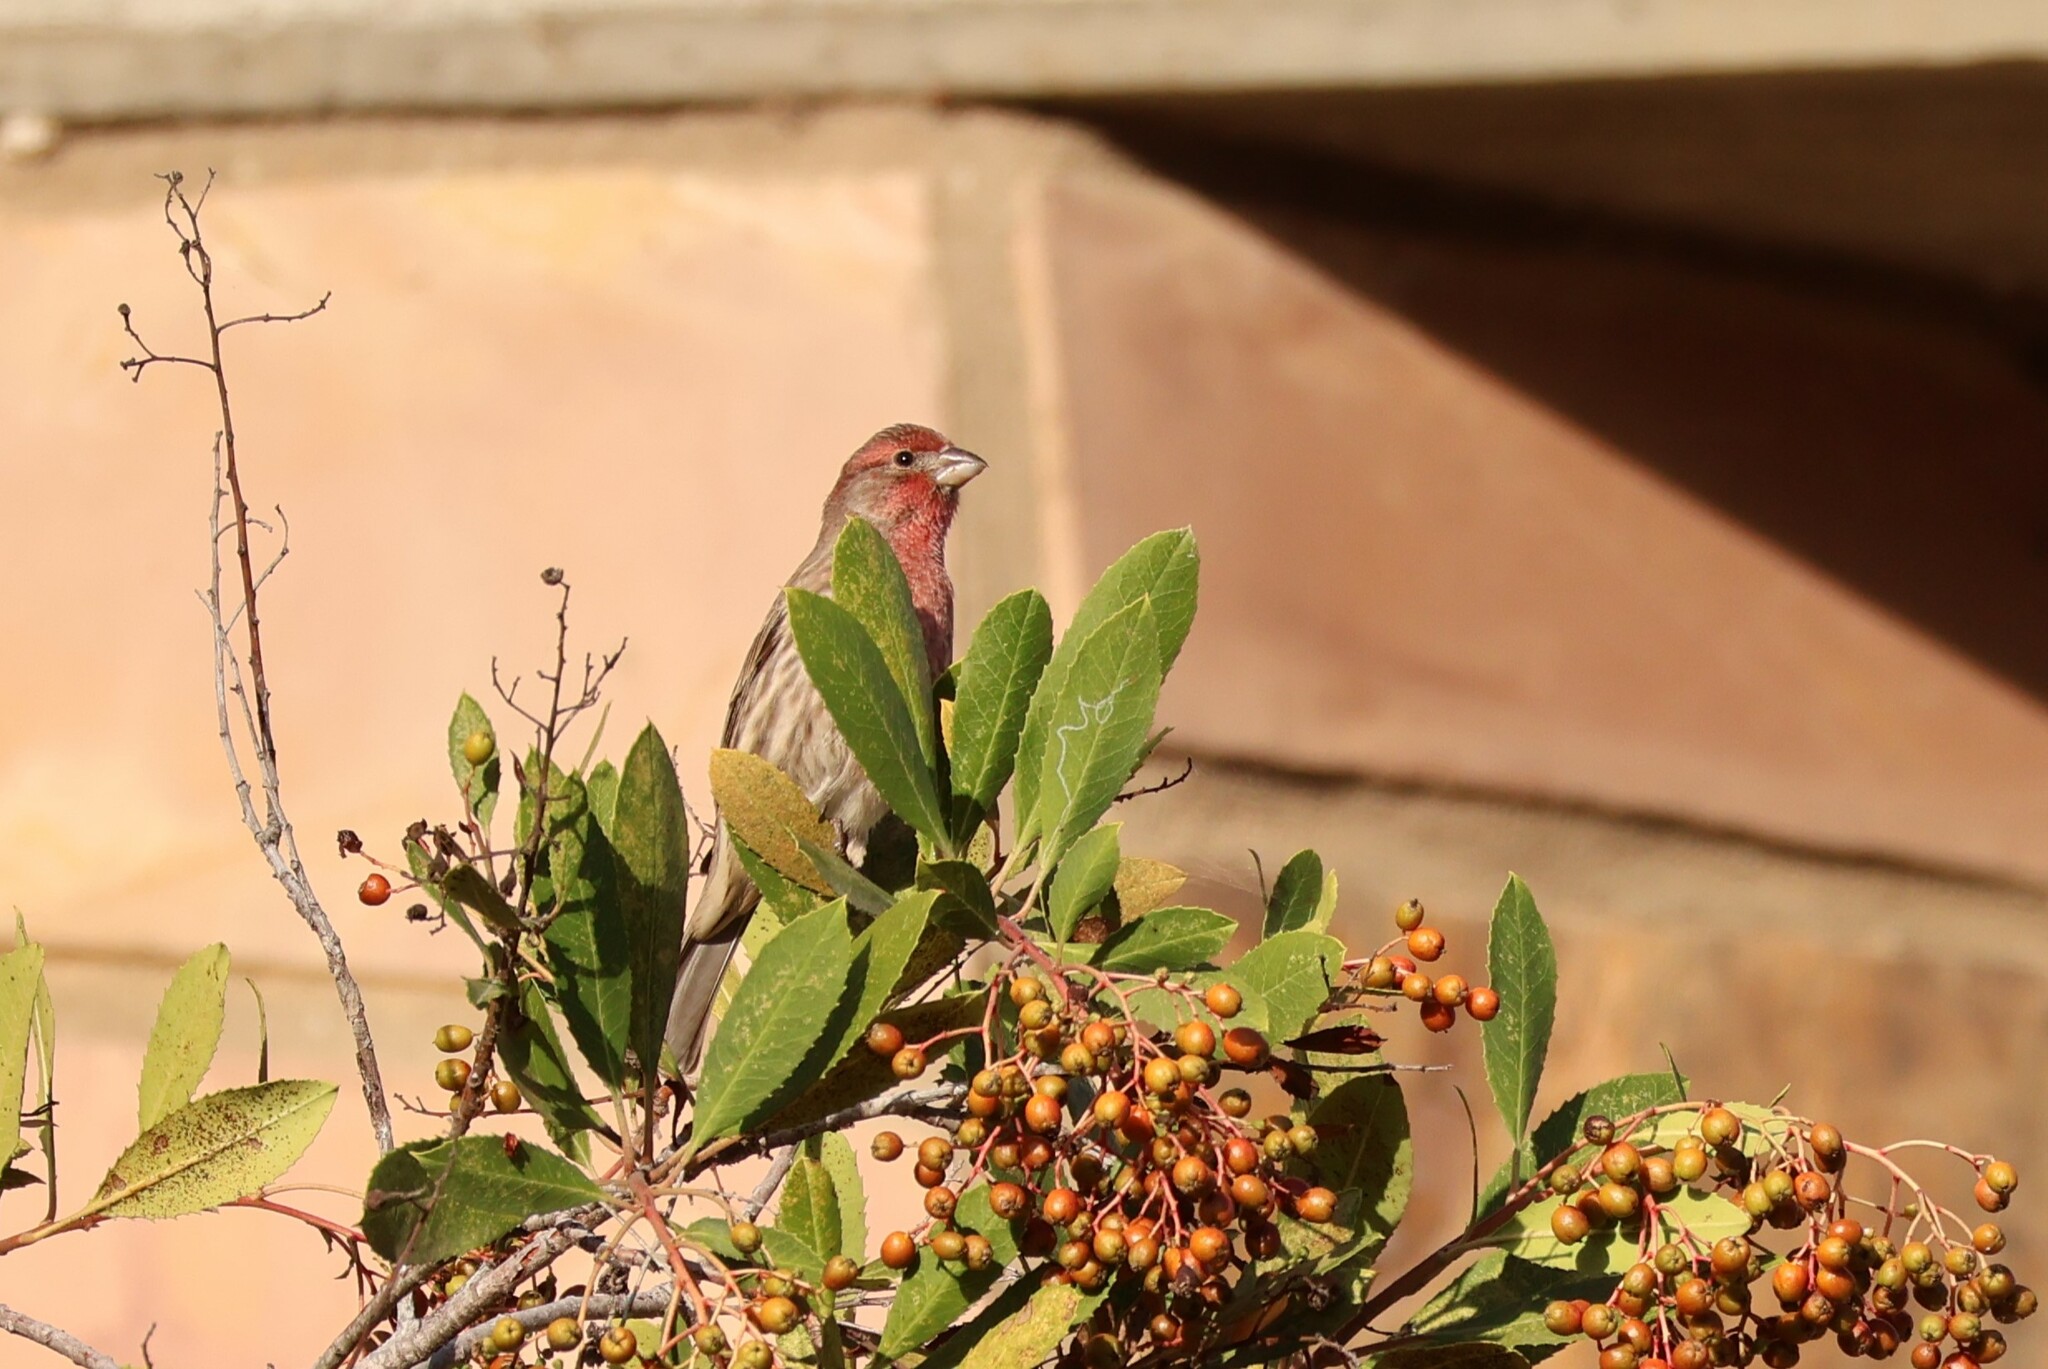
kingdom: Animalia
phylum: Chordata
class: Aves
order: Passeriformes
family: Fringillidae
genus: Haemorhous
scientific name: Haemorhous mexicanus
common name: House finch
